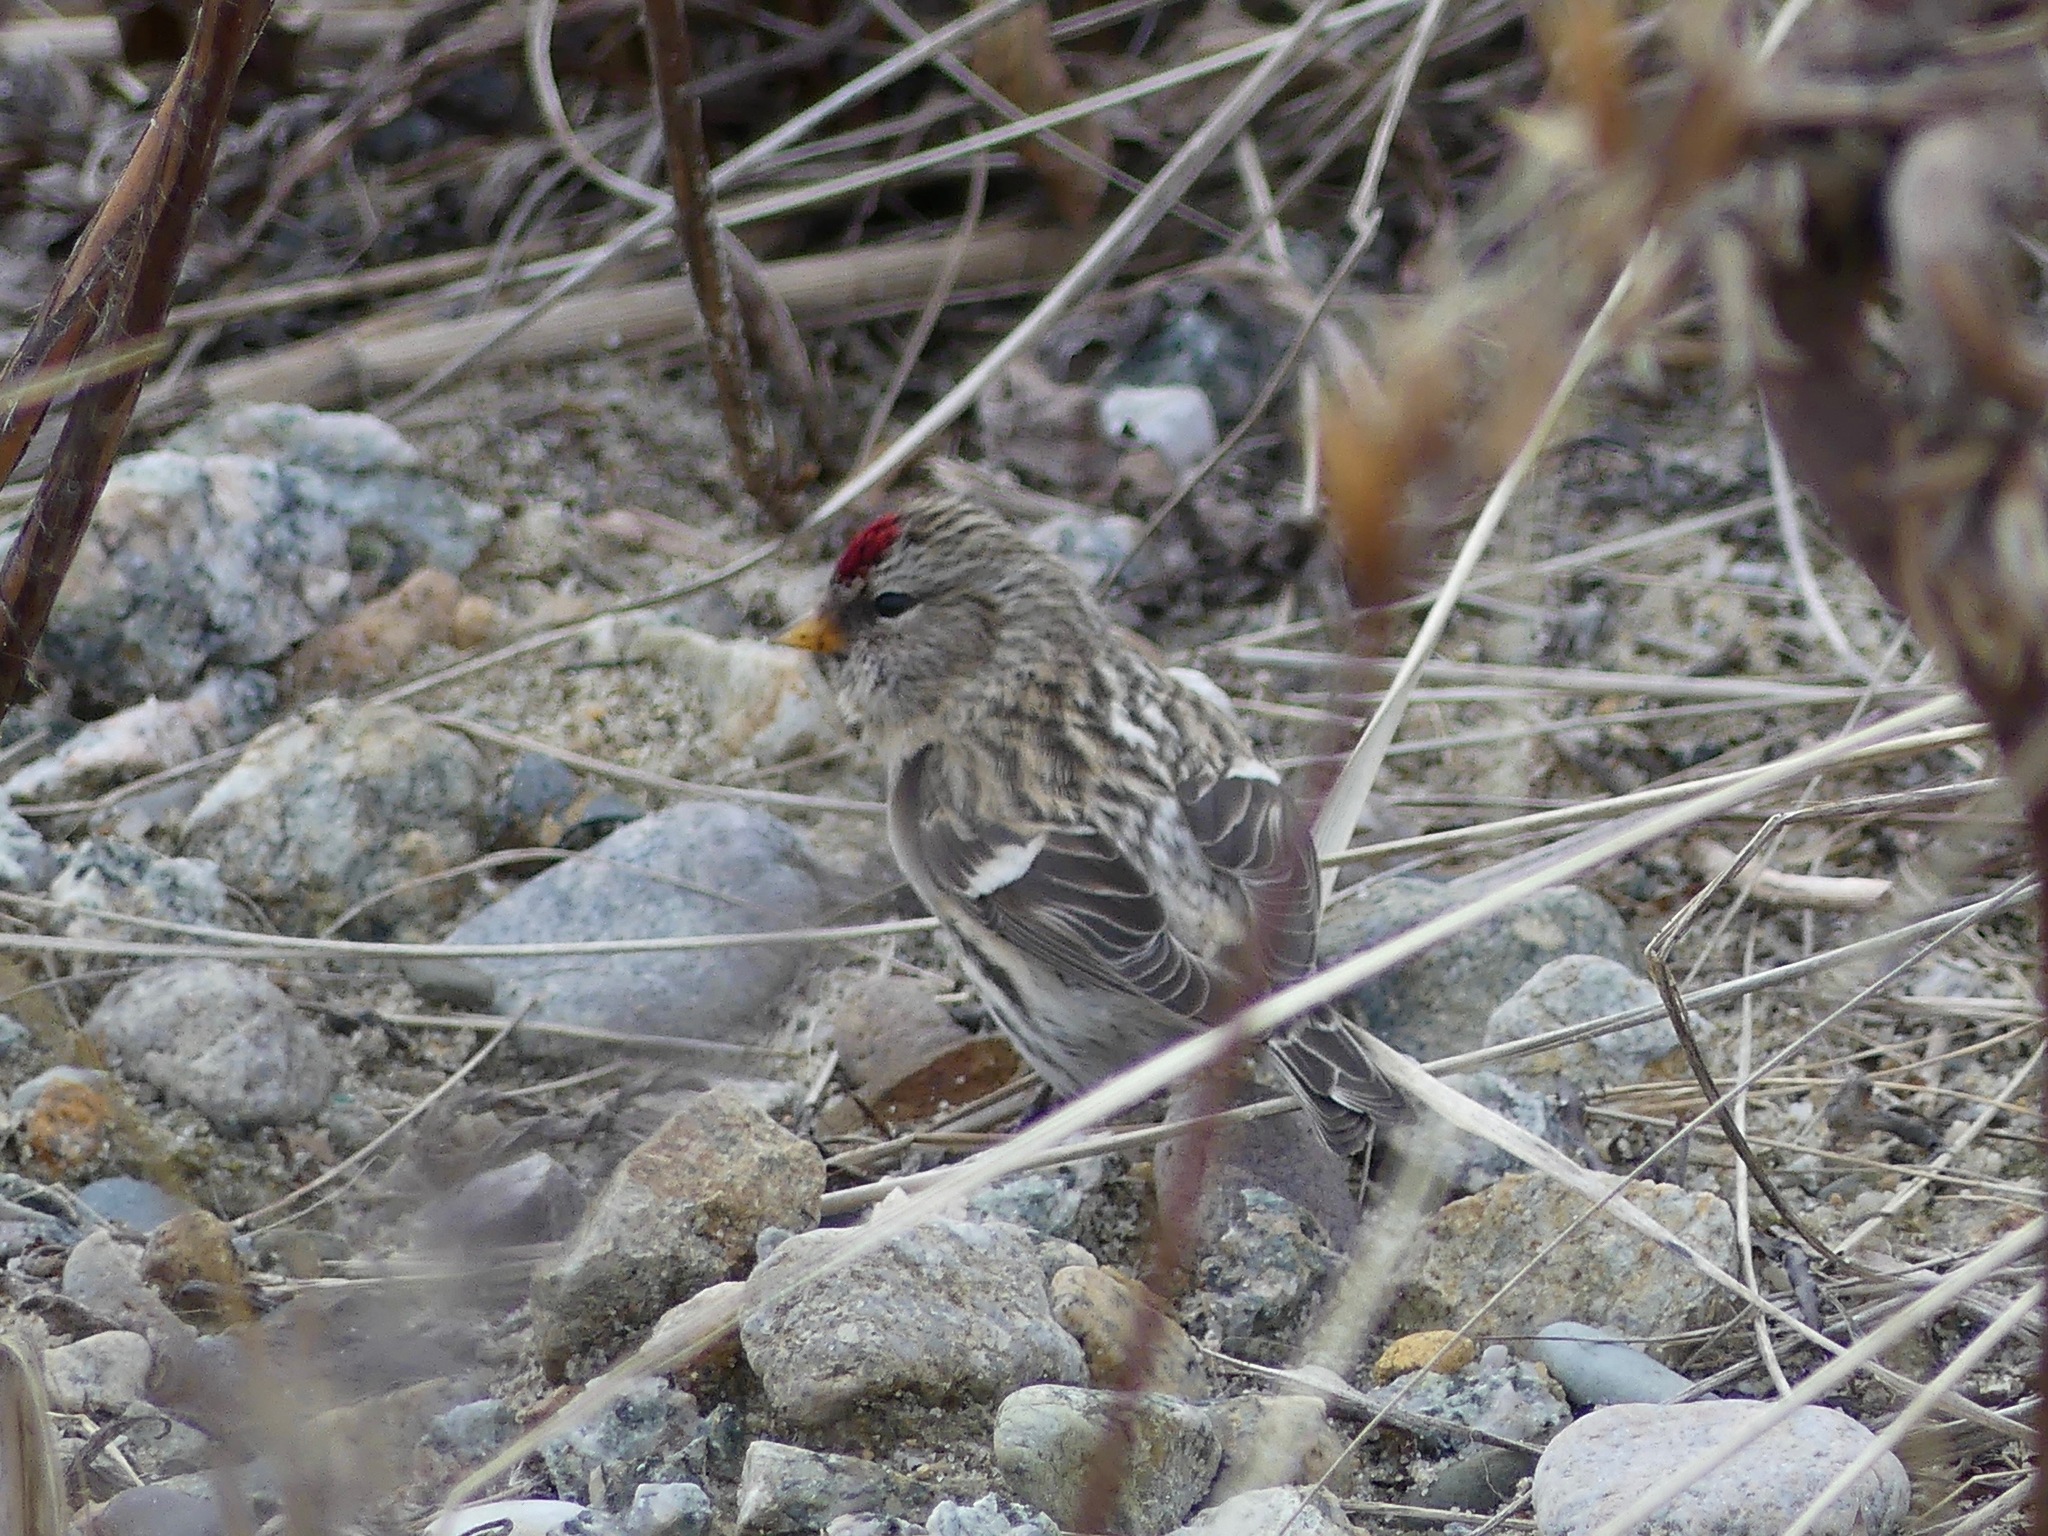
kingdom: Animalia
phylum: Chordata
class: Aves
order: Passeriformes
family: Fringillidae
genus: Acanthis
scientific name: Acanthis flammea
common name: Common redpoll
